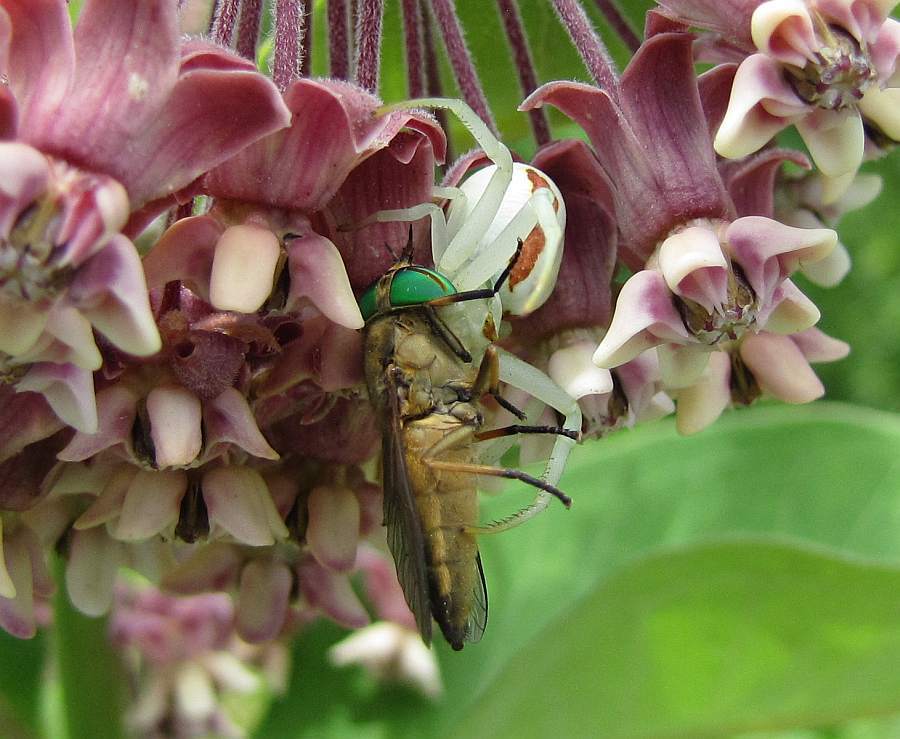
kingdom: Animalia
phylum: Arthropoda
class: Arachnida
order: Araneae
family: Thomisidae
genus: Misumena
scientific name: Misumena vatia
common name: Goldenrod crab spider
